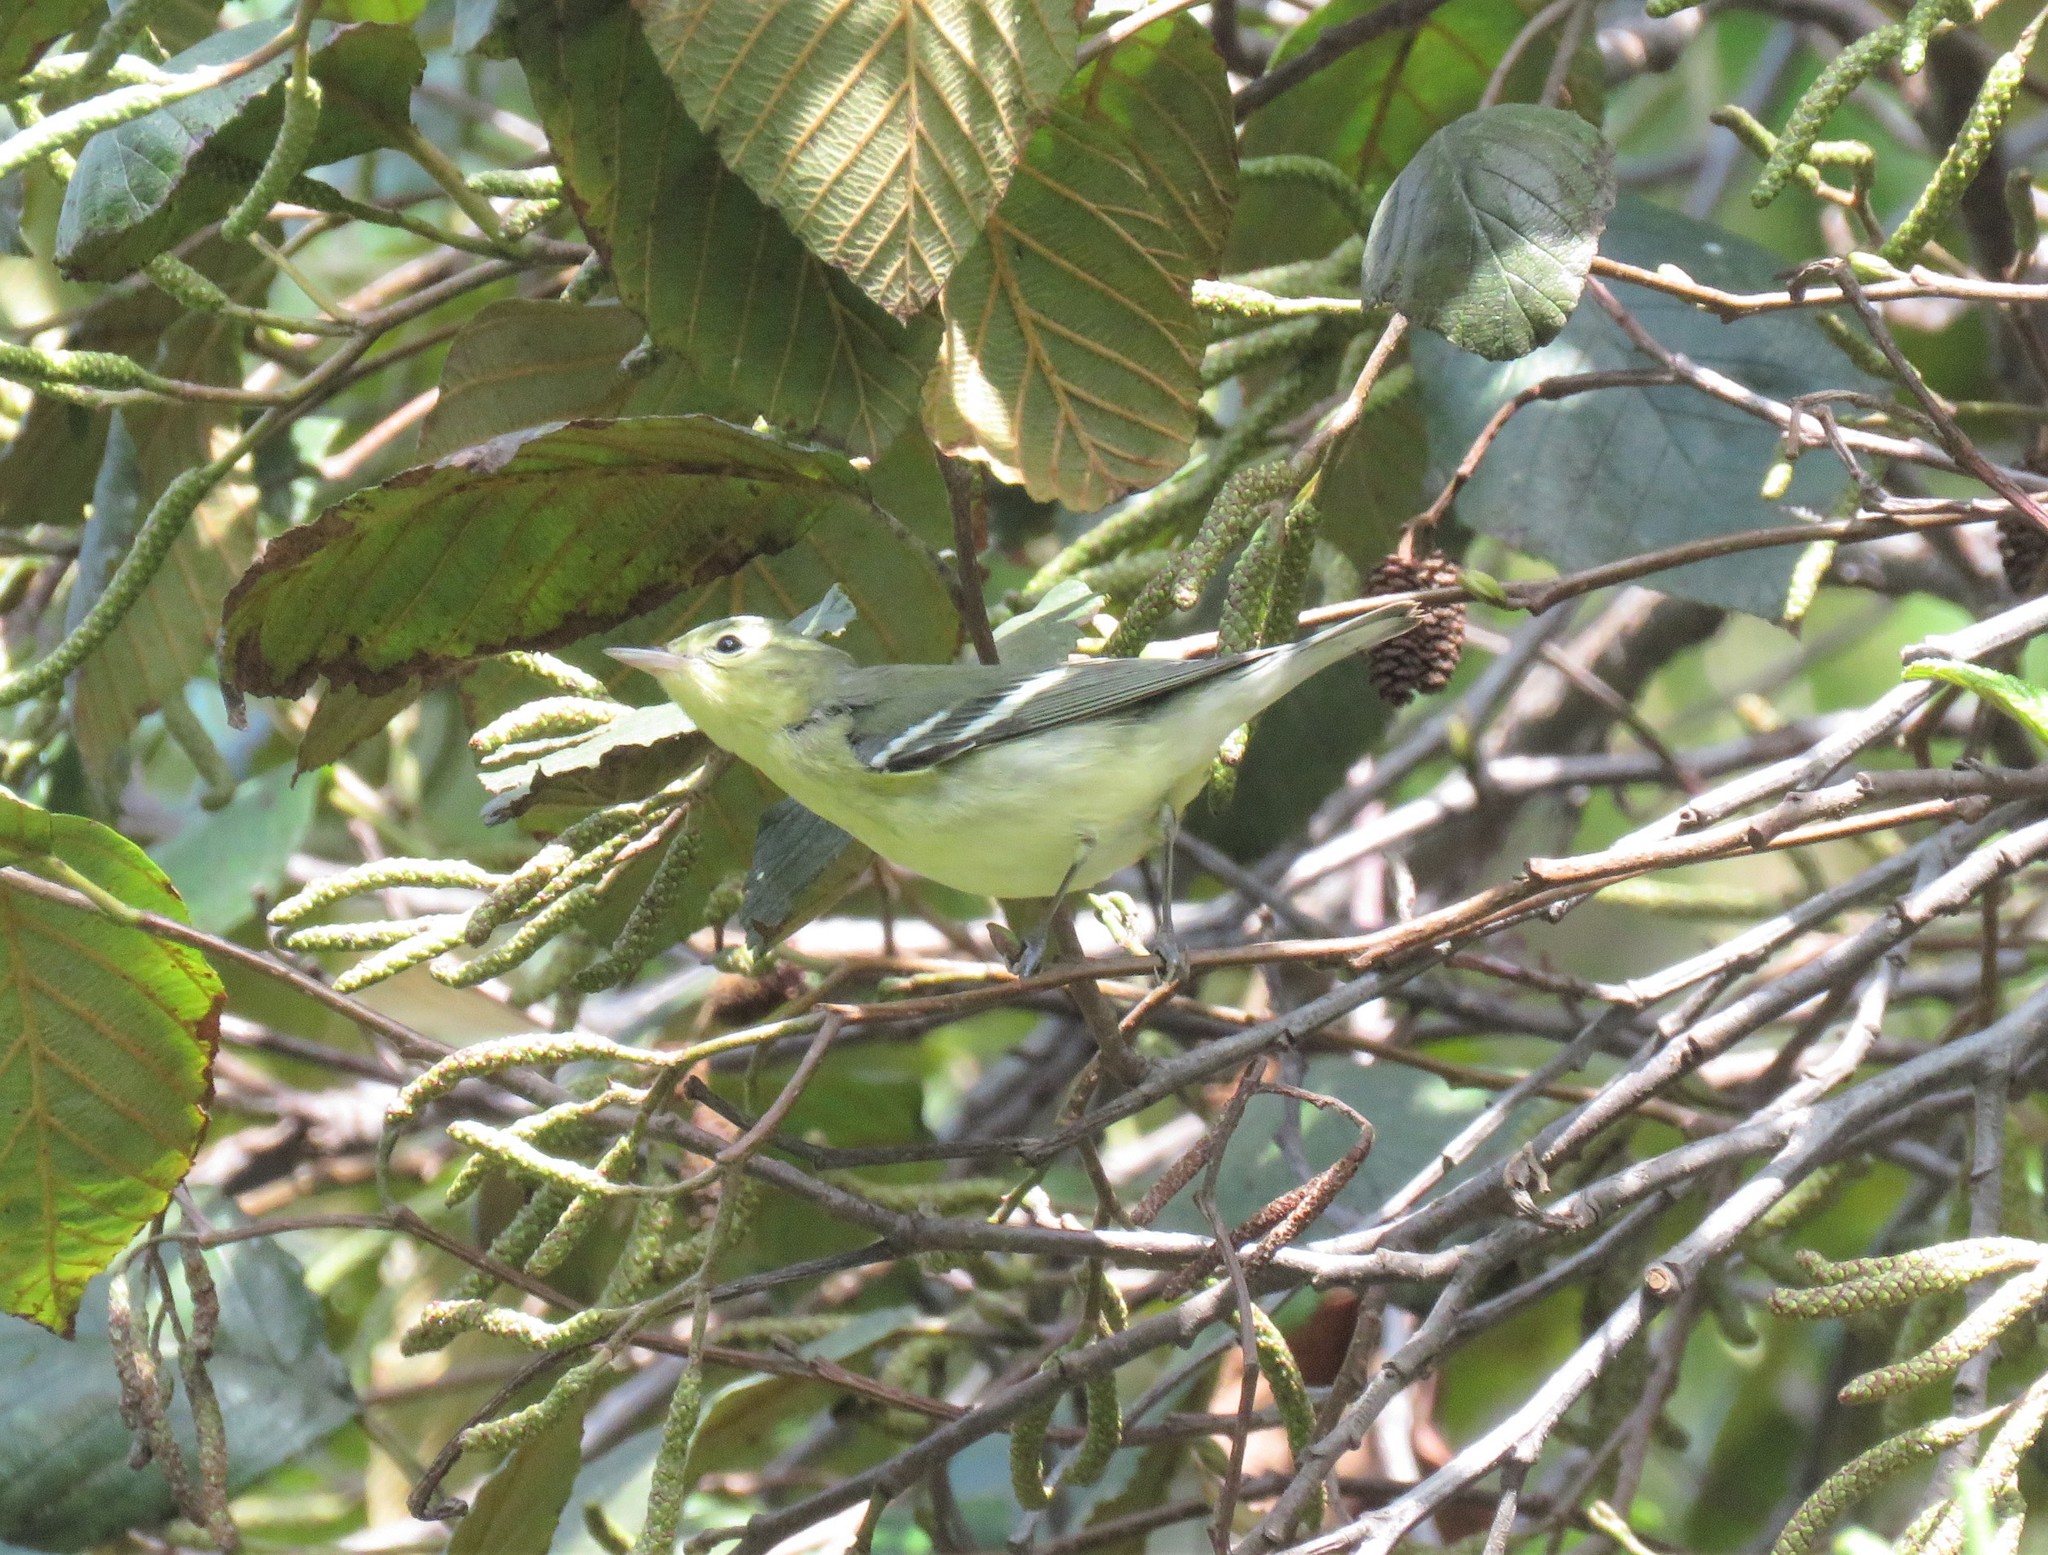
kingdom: Animalia
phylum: Chordata
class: Aves
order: Passeriformes
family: Parulidae
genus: Setophaga
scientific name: Setophaga cerulea
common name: Cerulean warbler
